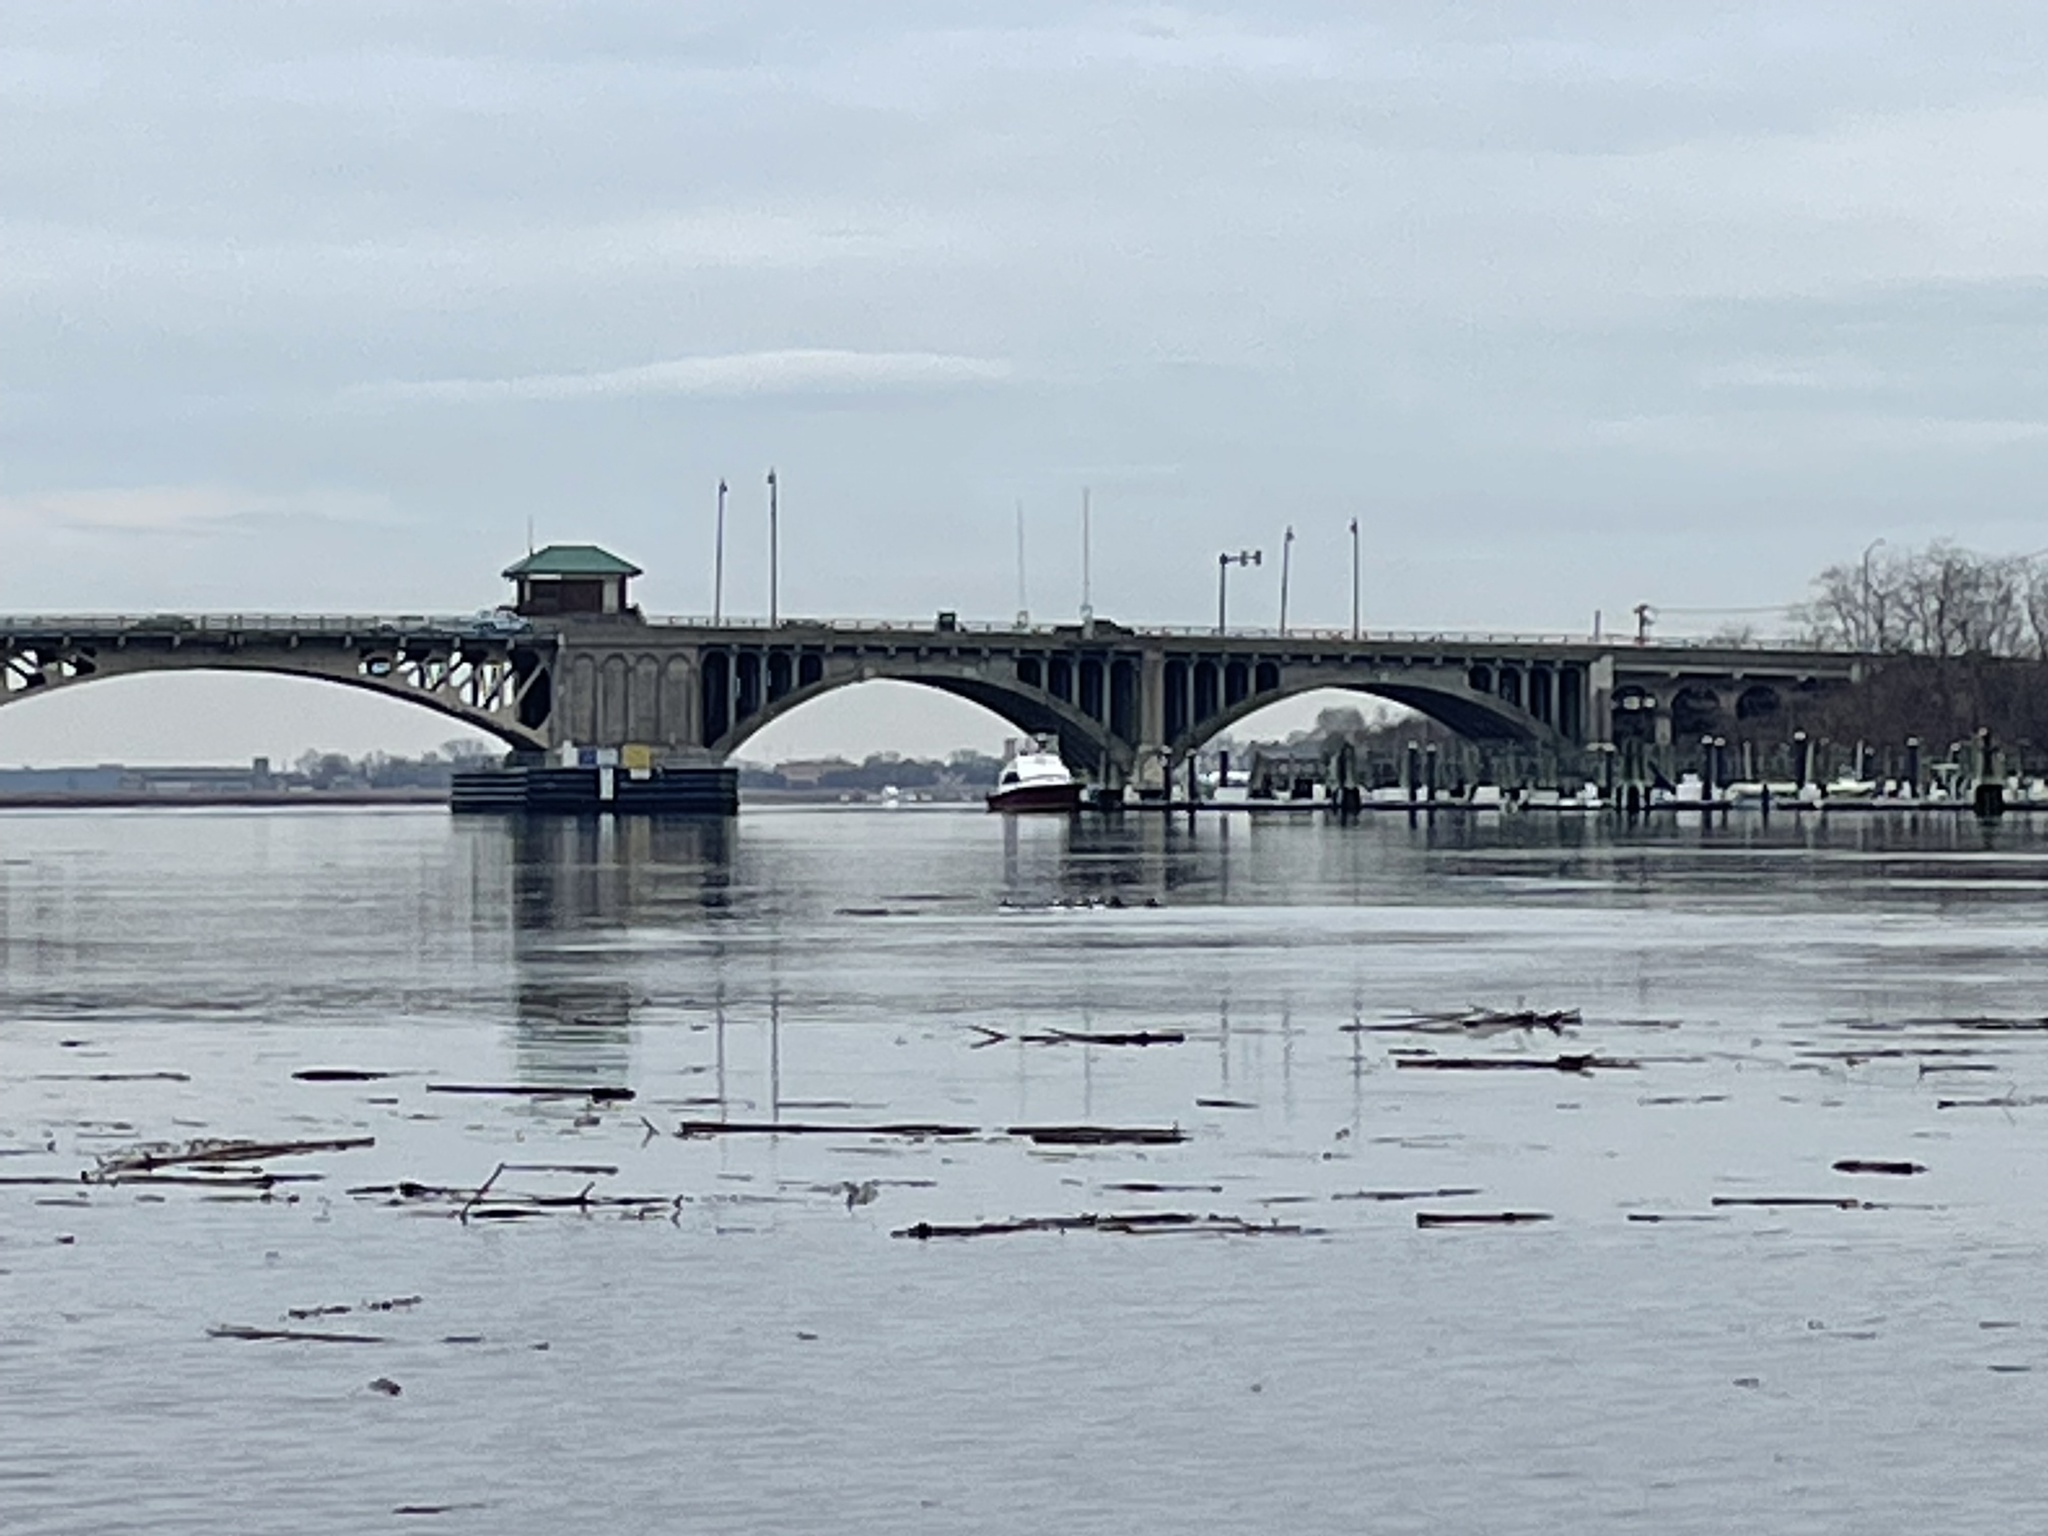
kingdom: Animalia
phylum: Chordata
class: Aves
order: Anseriformes
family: Anatidae
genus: Bucephala
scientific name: Bucephala albeola
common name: Bufflehead
